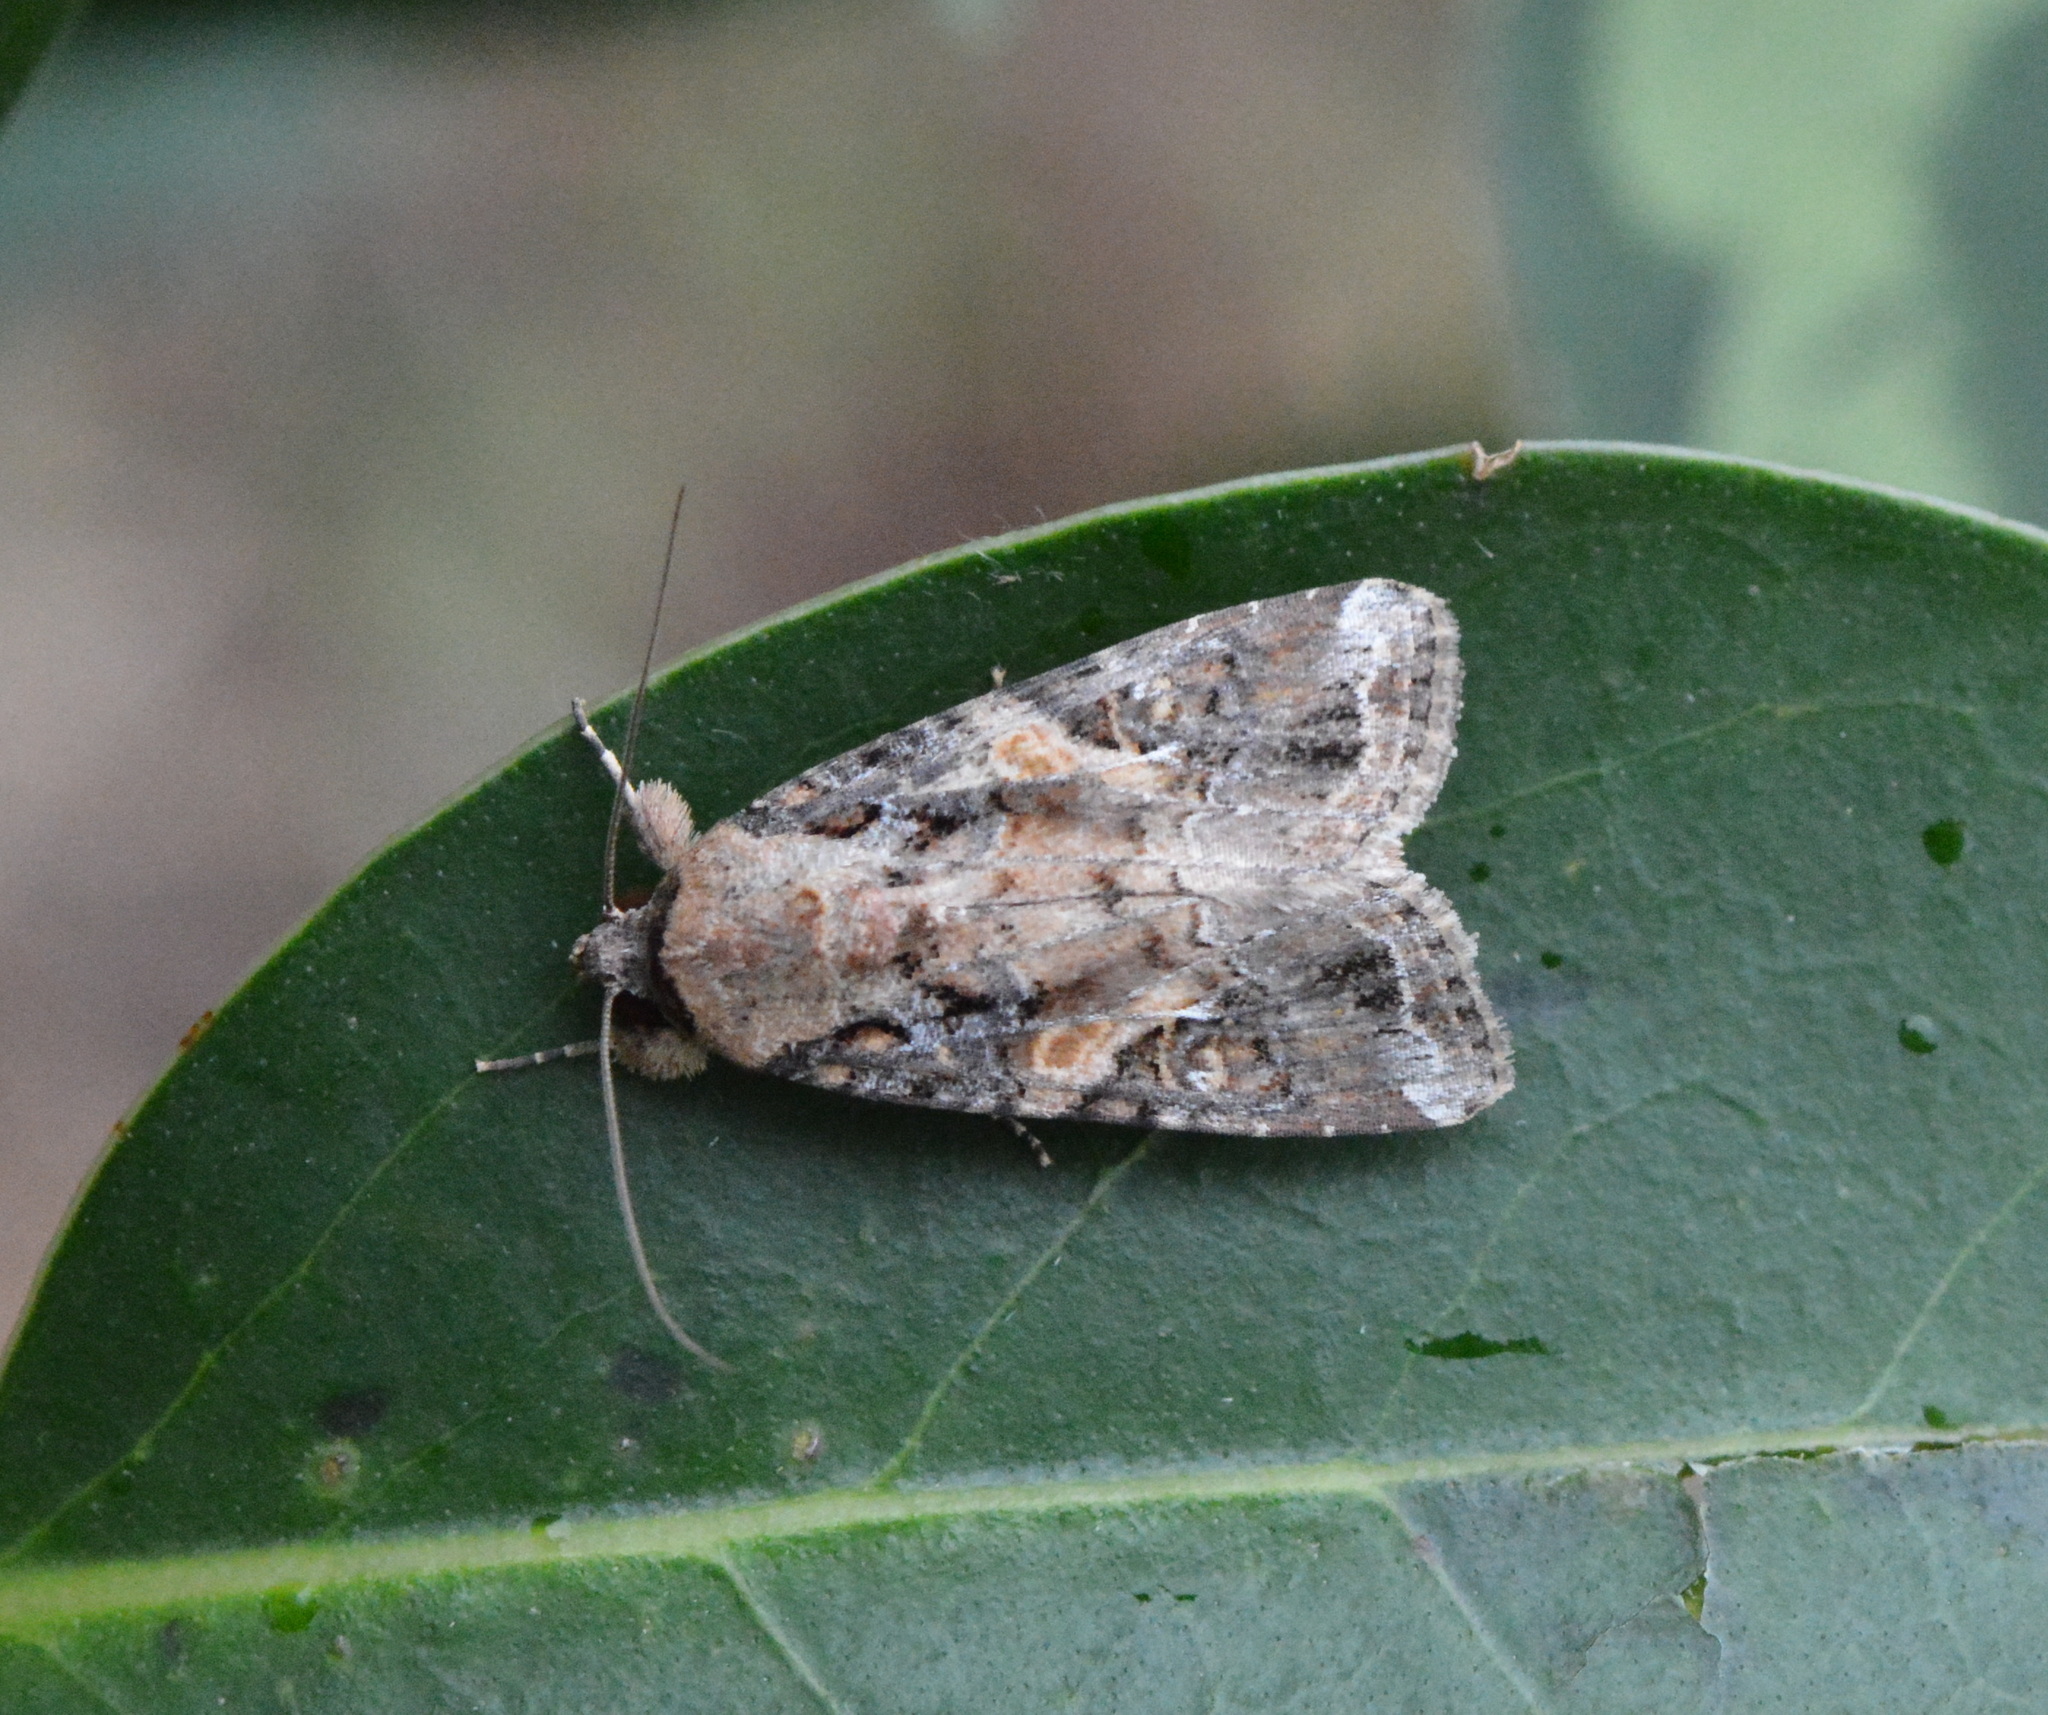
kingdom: Animalia
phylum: Arthropoda
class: Insecta
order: Lepidoptera
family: Noctuidae
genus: Spodoptera
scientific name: Spodoptera frugiperda
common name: Fall armyworm
